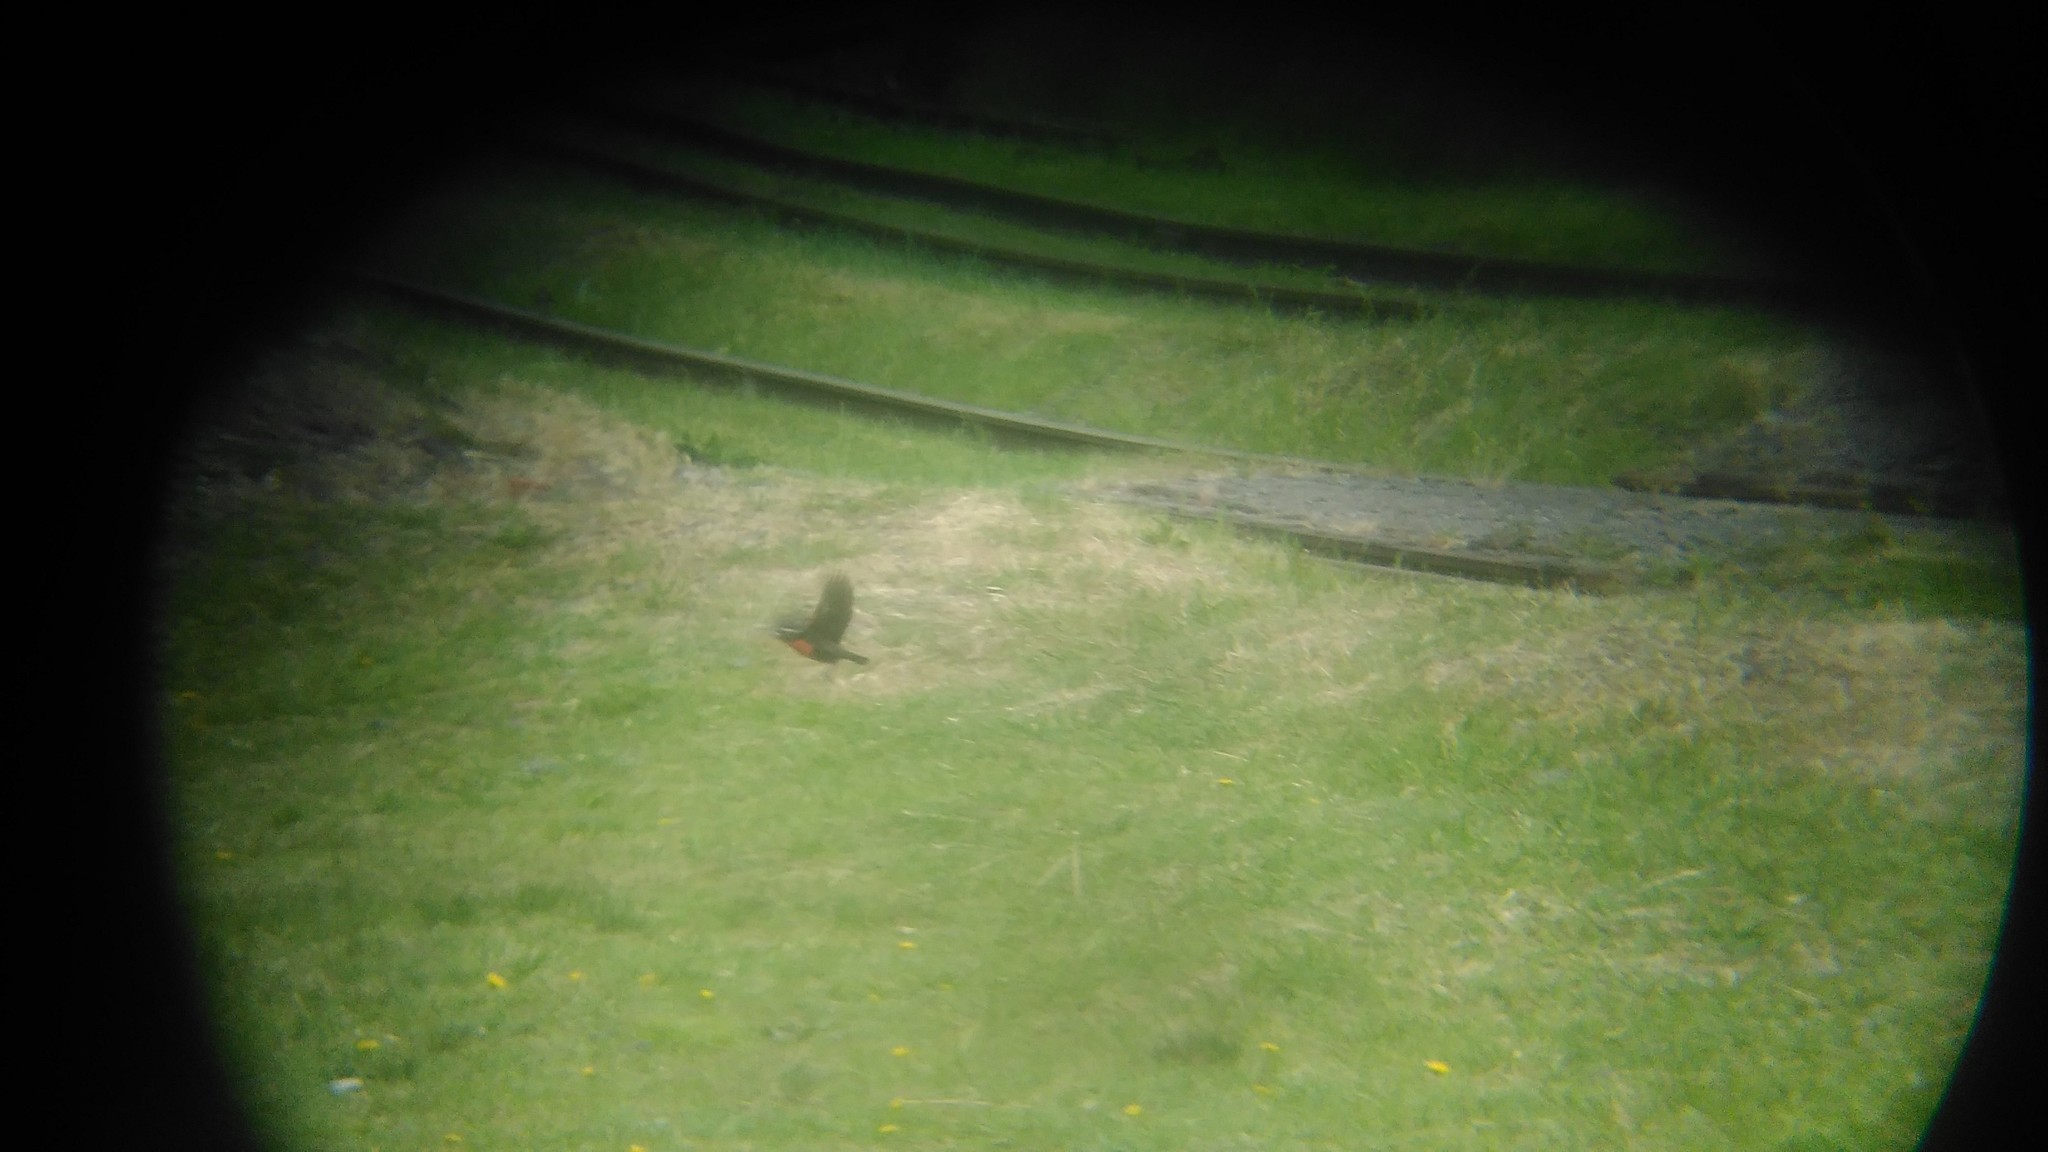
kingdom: Animalia
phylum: Chordata
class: Aves
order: Passeriformes
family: Icteridae
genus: Sturnella
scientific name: Sturnella superciliaris
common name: White-browed blackbird
